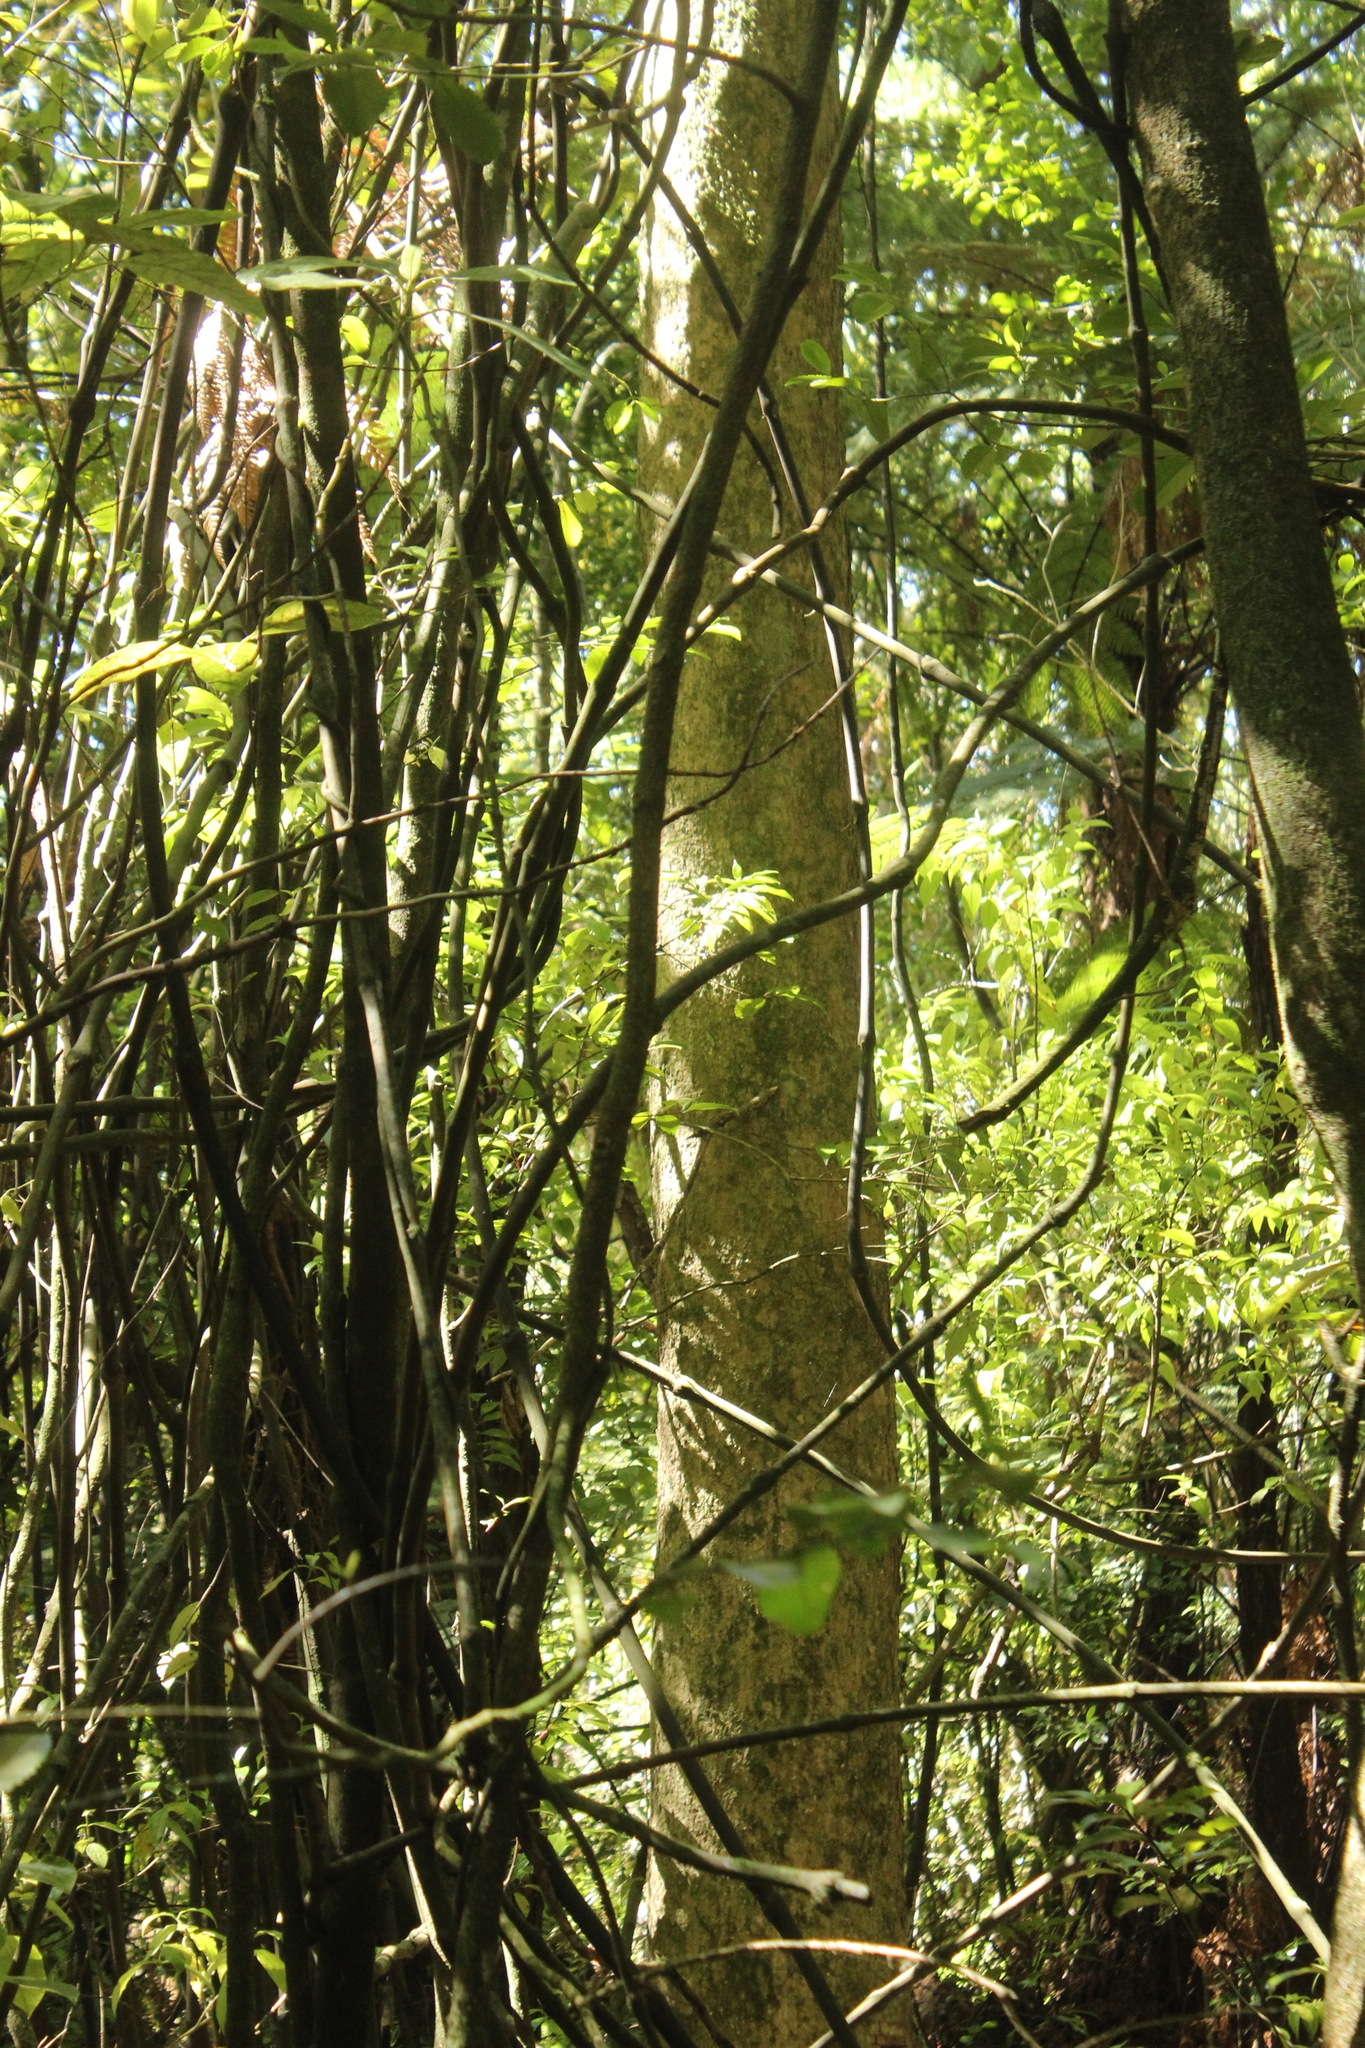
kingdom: Plantae
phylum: Tracheophyta
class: Magnoliopsida
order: Myrtales
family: Myrtaceae
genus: Syzygium
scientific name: Syzygium maire
